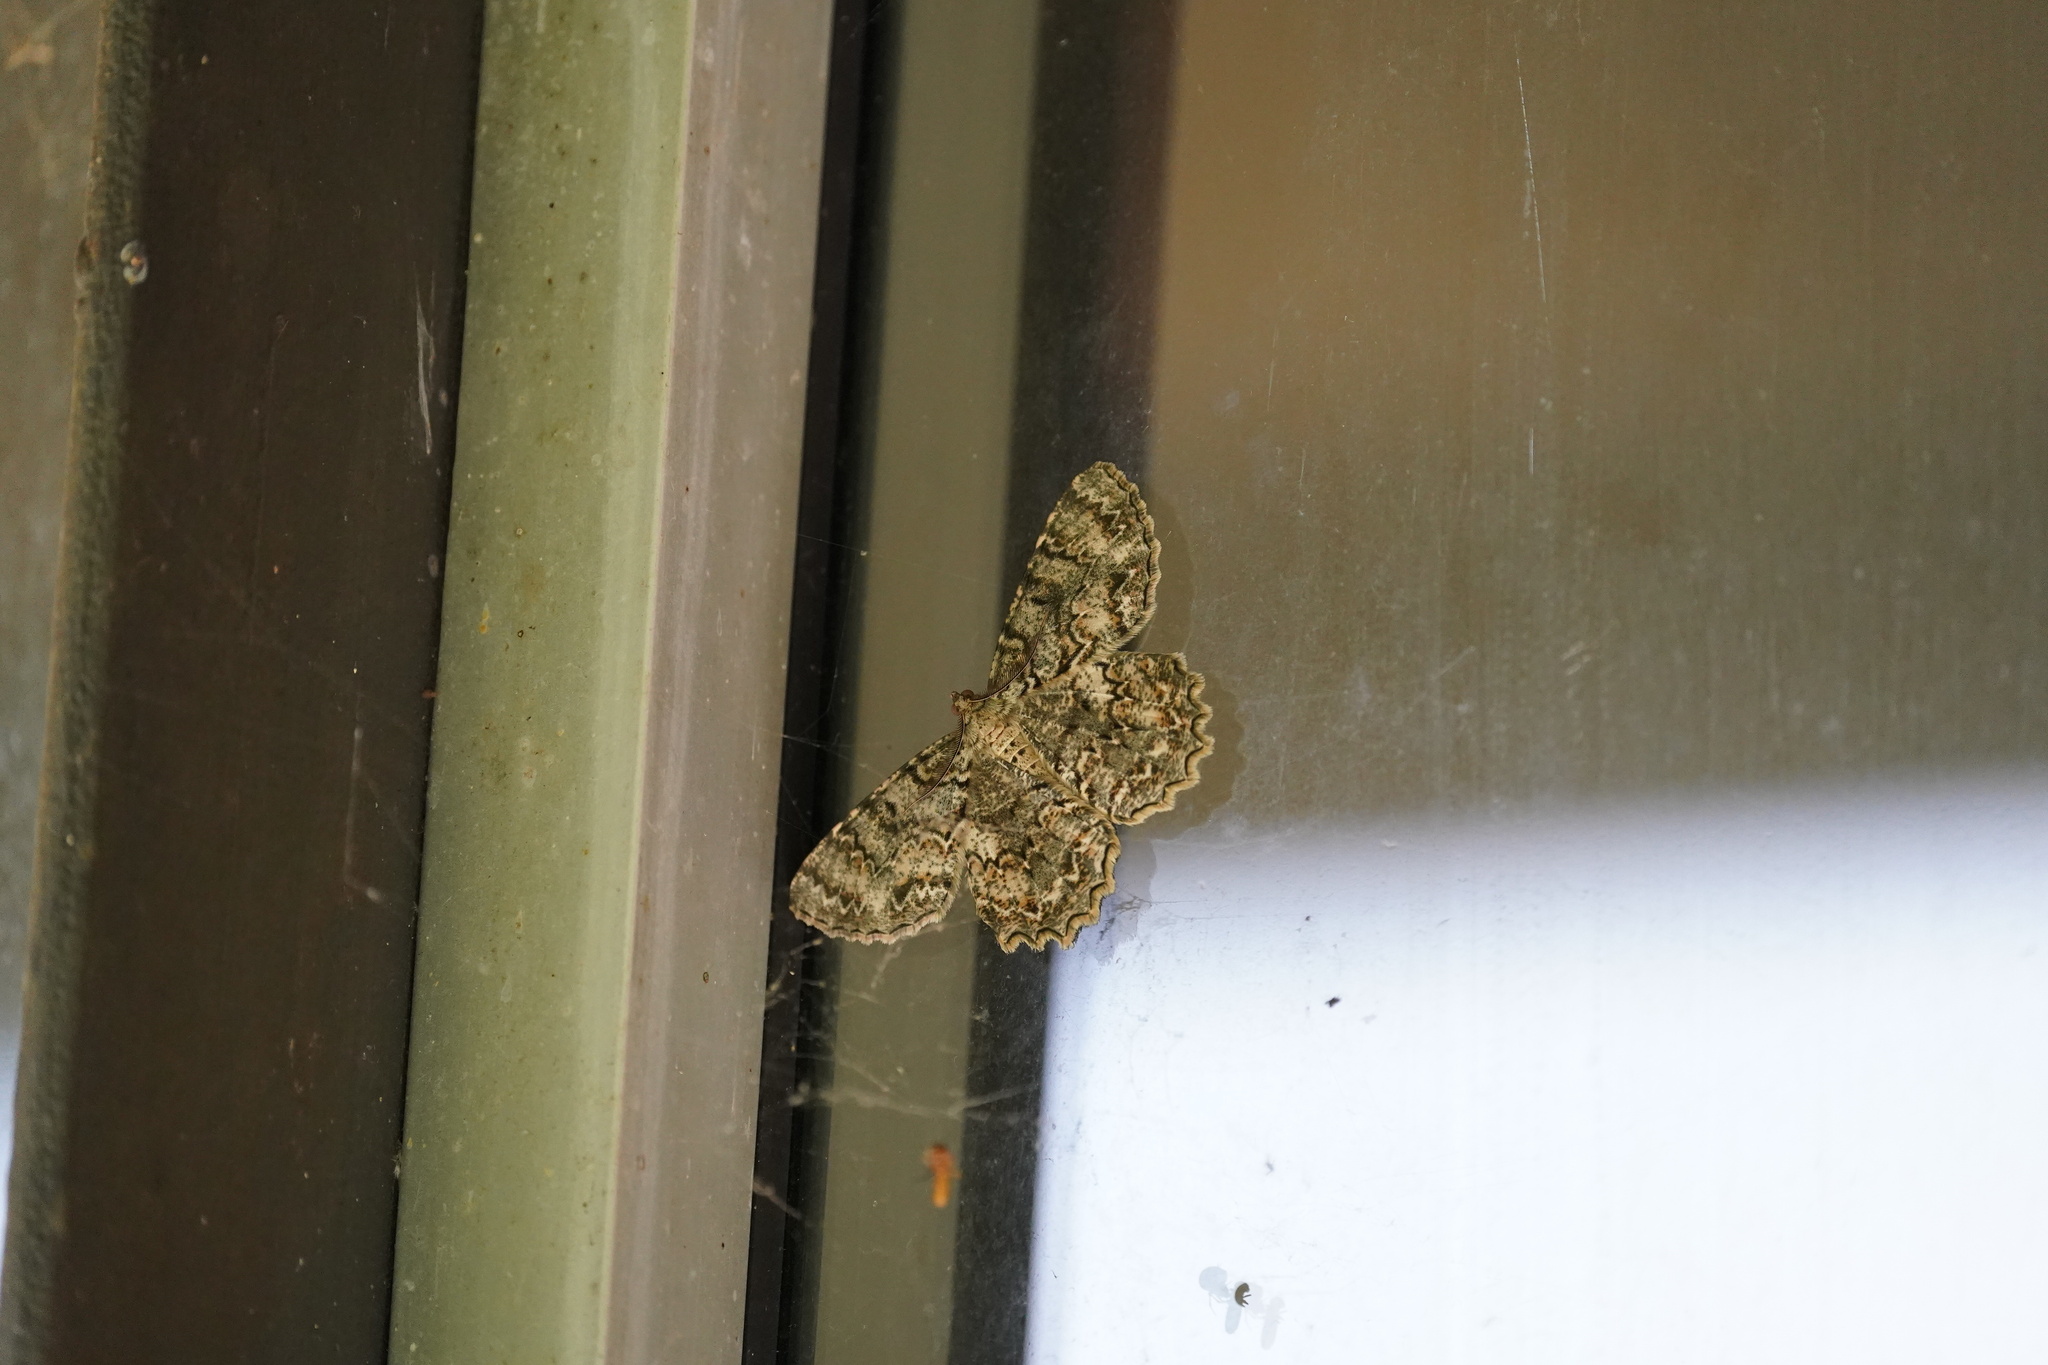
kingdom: Animalia
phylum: Arthropoda
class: Insecta
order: Lepidoptera
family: Geometridae
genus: Epimecis
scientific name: Epimecis hortaria
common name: Tulip-tree beauty
